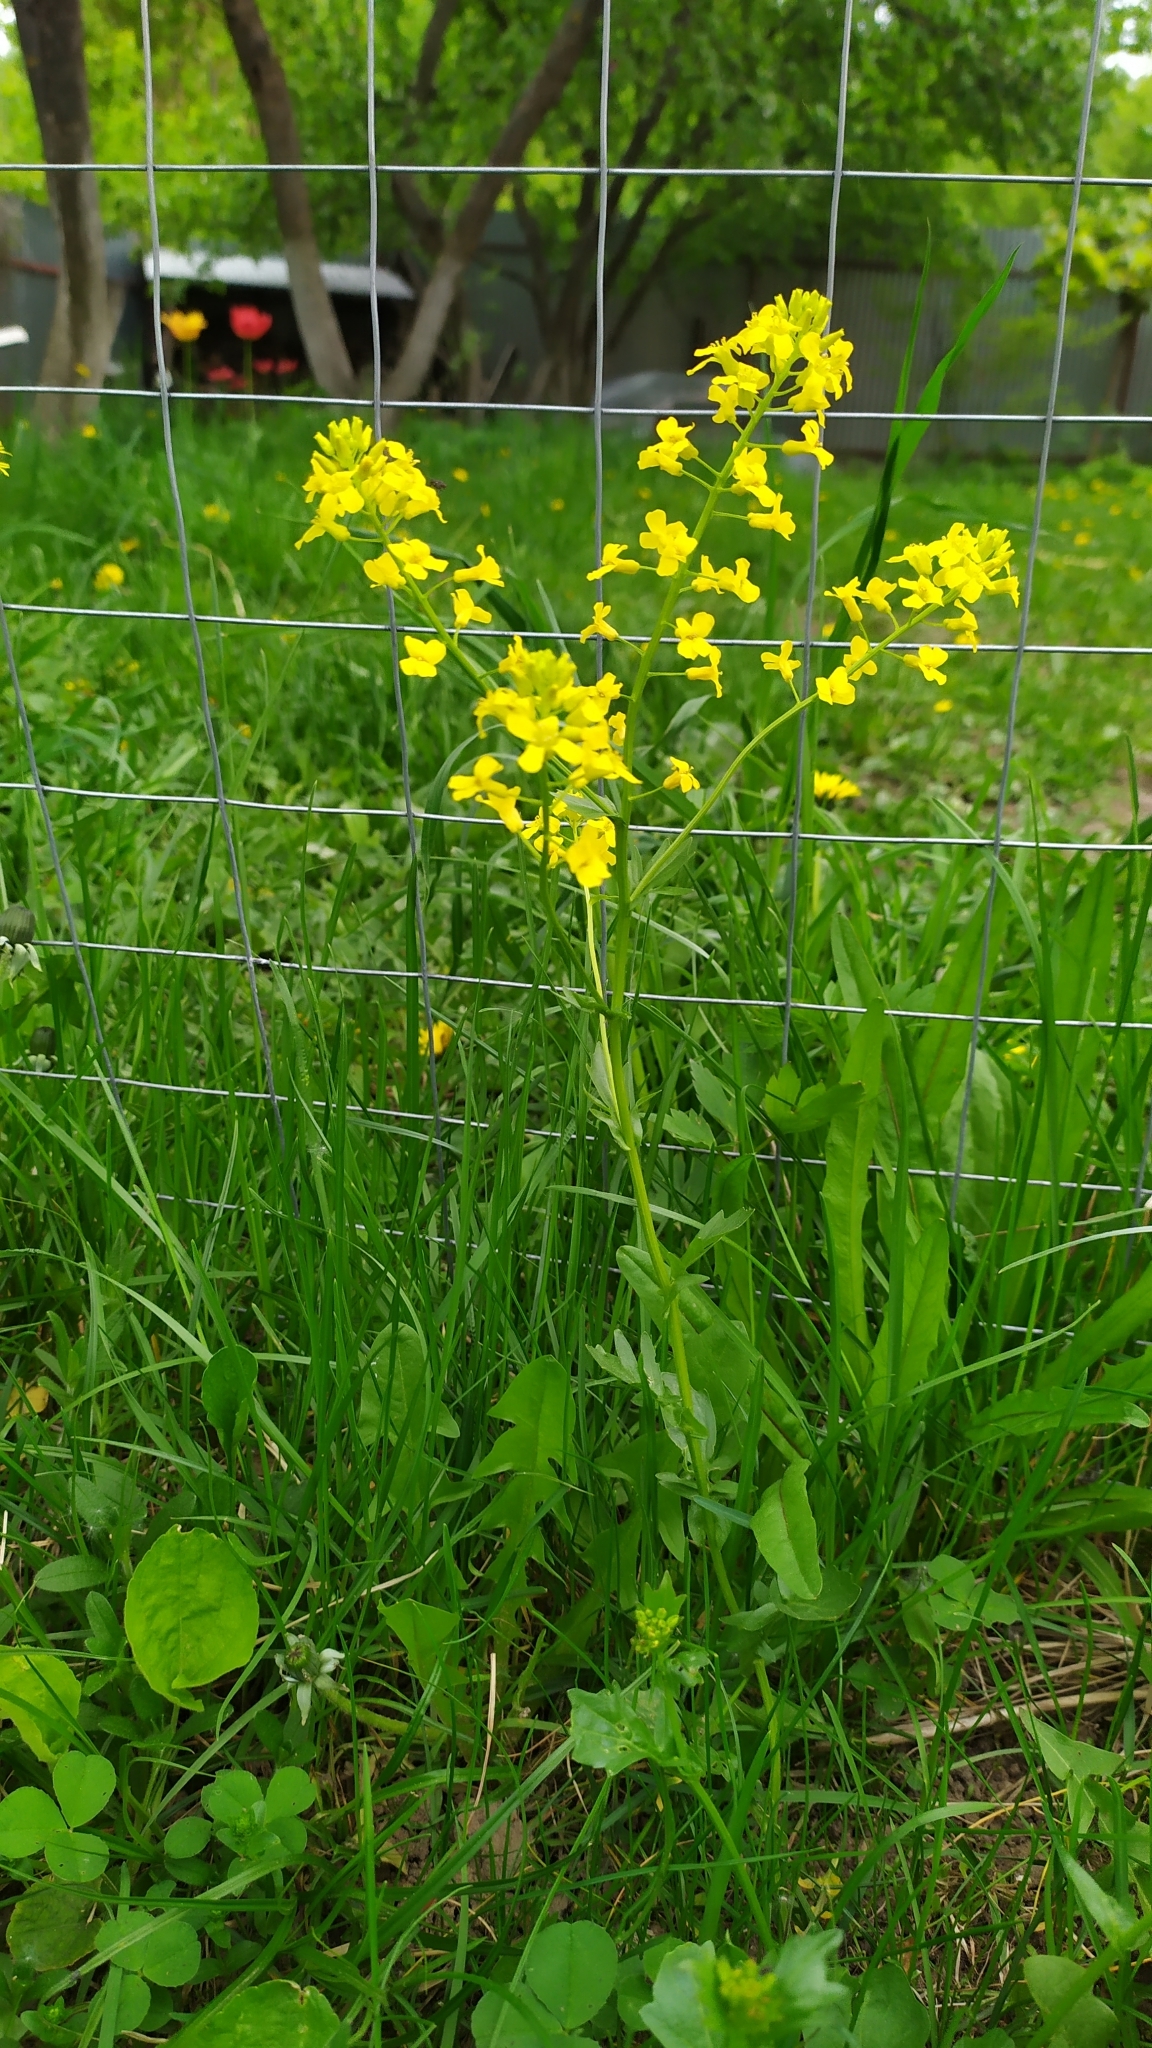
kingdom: Plantae
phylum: Tracheophyta
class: Magnoliopsida
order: Brassicales
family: Brassicaceae
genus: Barbarea
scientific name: Barbarea vulgaris
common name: Cressy-greens
